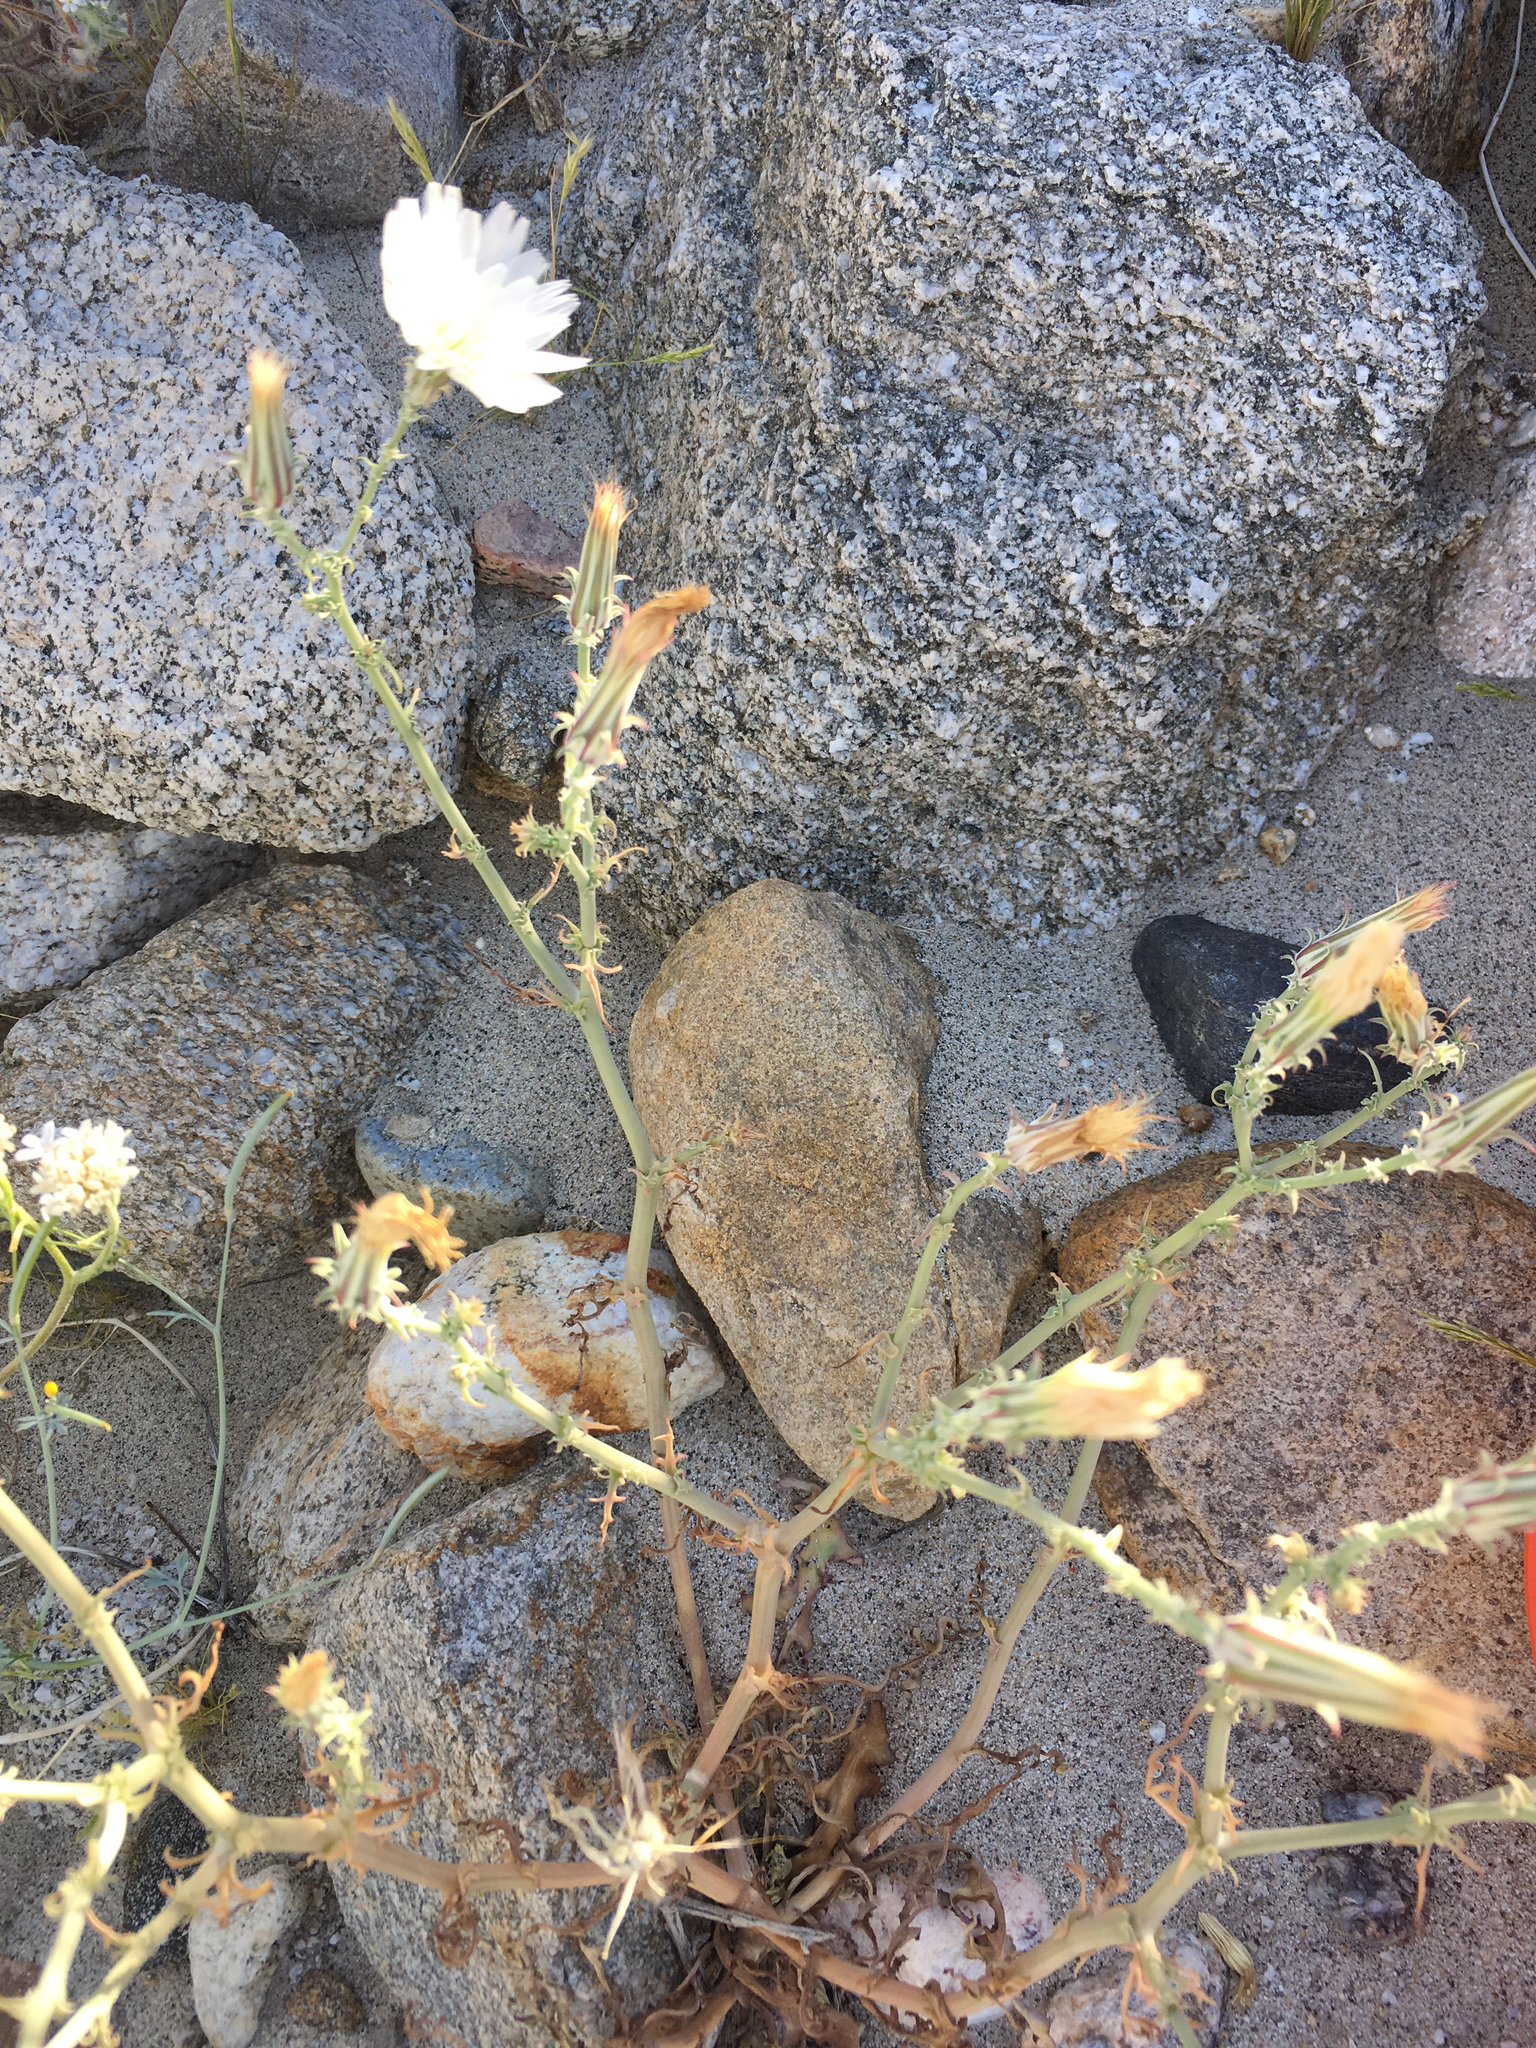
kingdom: Plantae
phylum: Tracheophyta
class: Magnoliopsida
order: Asterales
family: Asteraceae
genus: Rafinesquia
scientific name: Rafinesquia neomexicana
